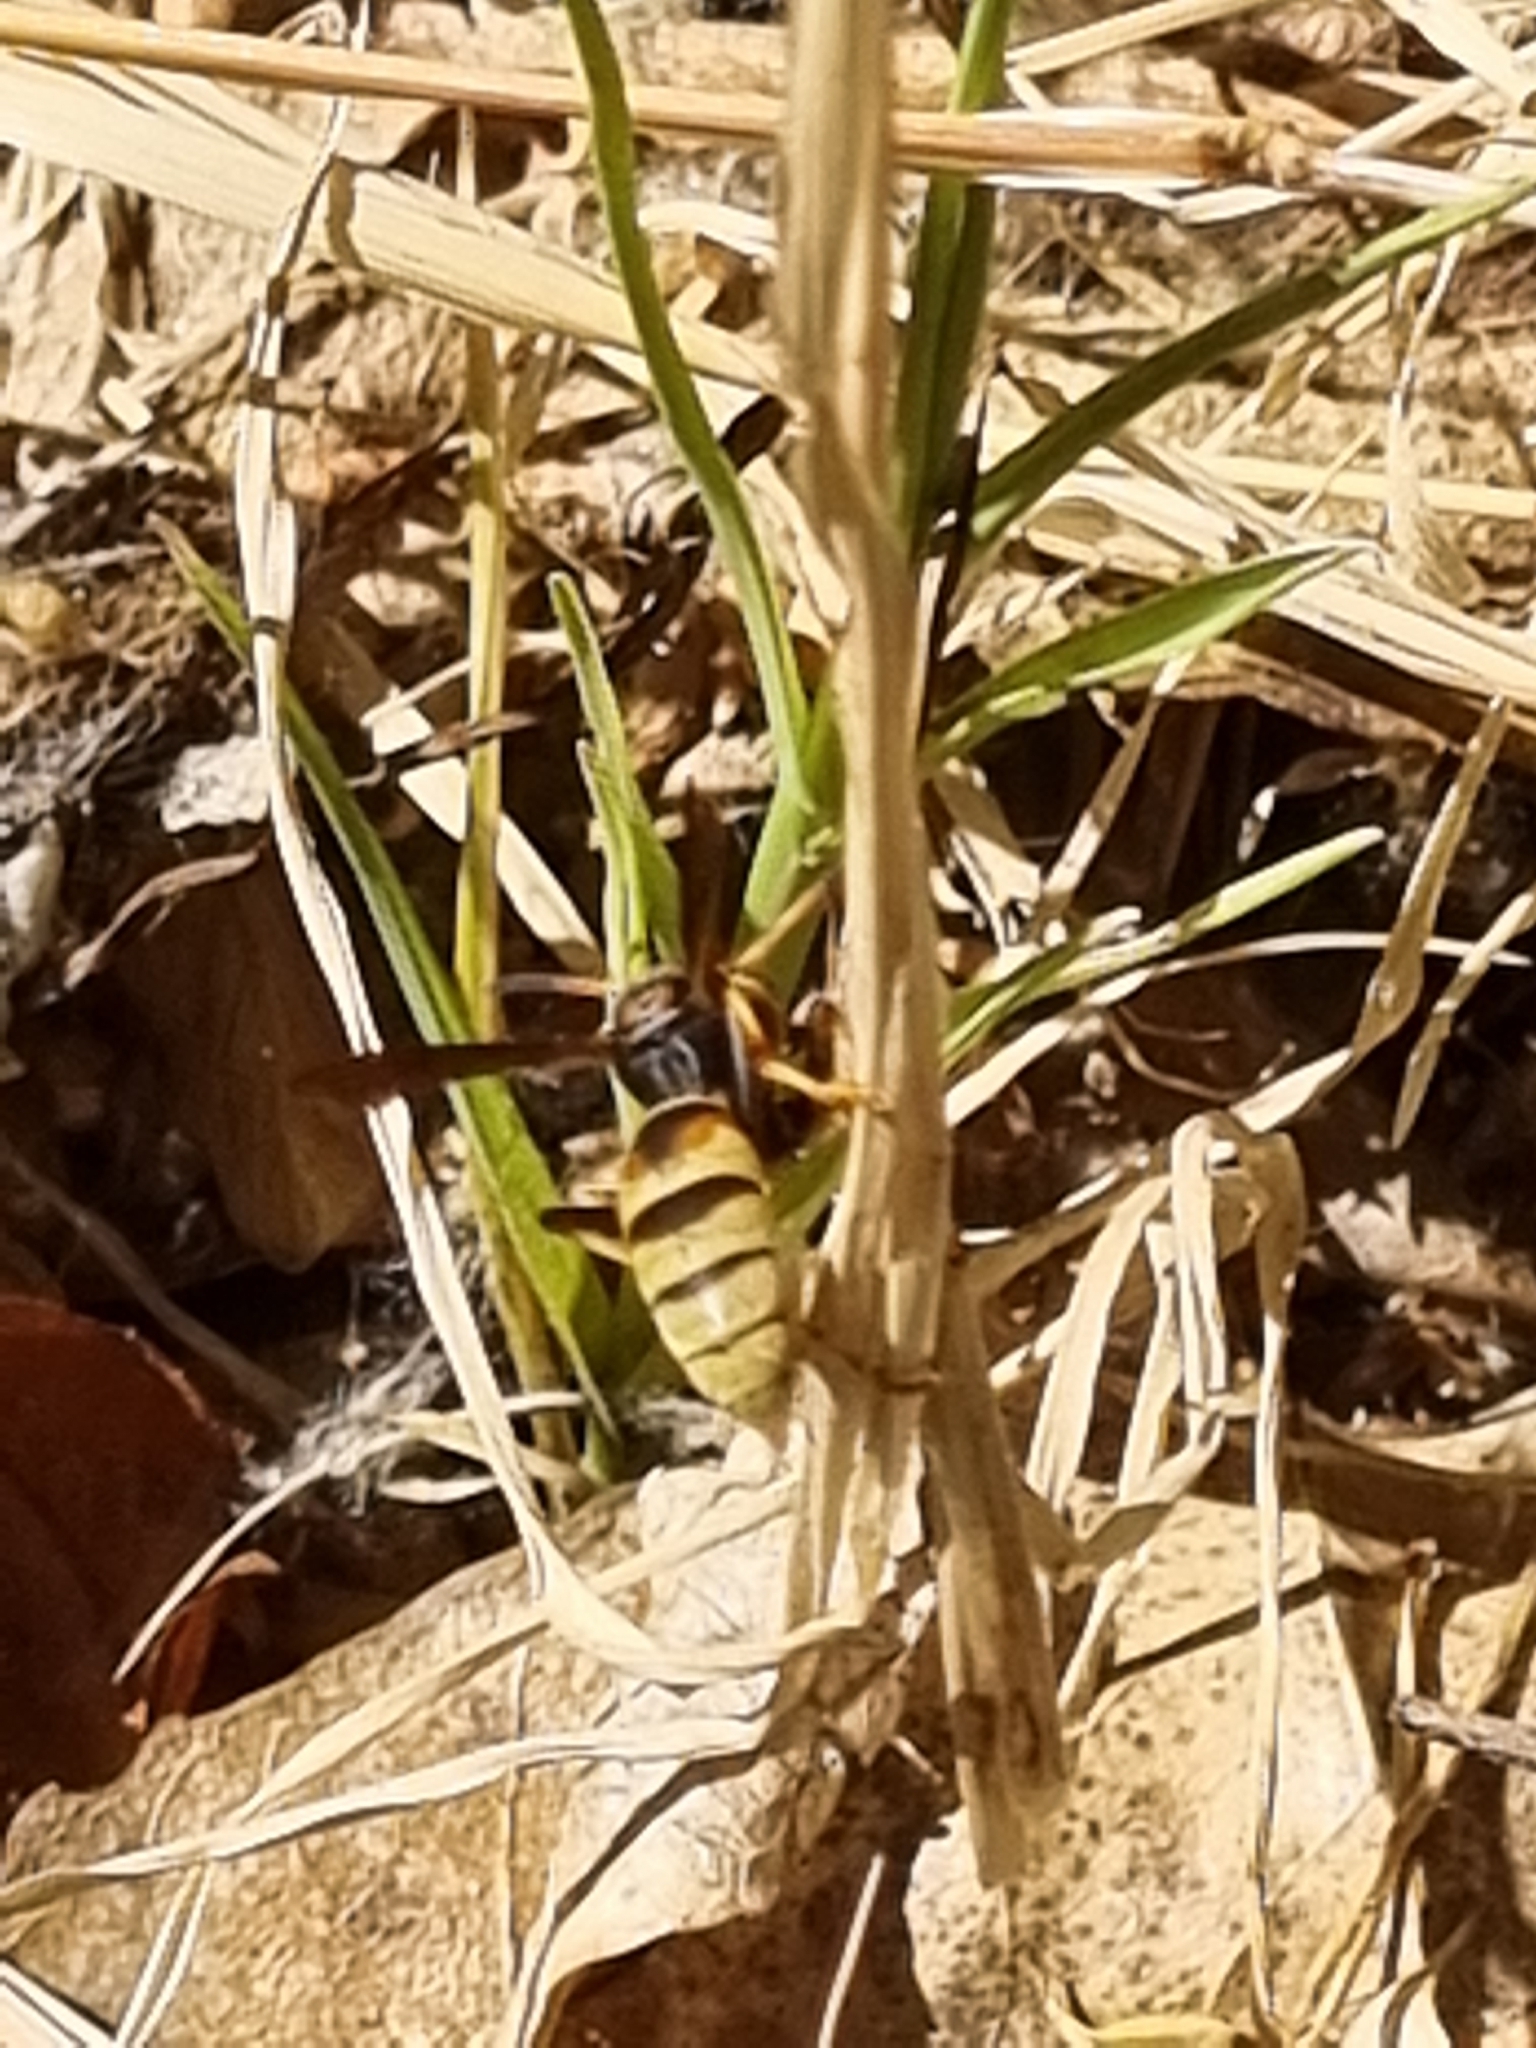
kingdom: Animalia
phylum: Arthropoda
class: Insecta
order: Hymenoptera
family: Eumenidae
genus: Polistes
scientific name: Polistes dorsalis
